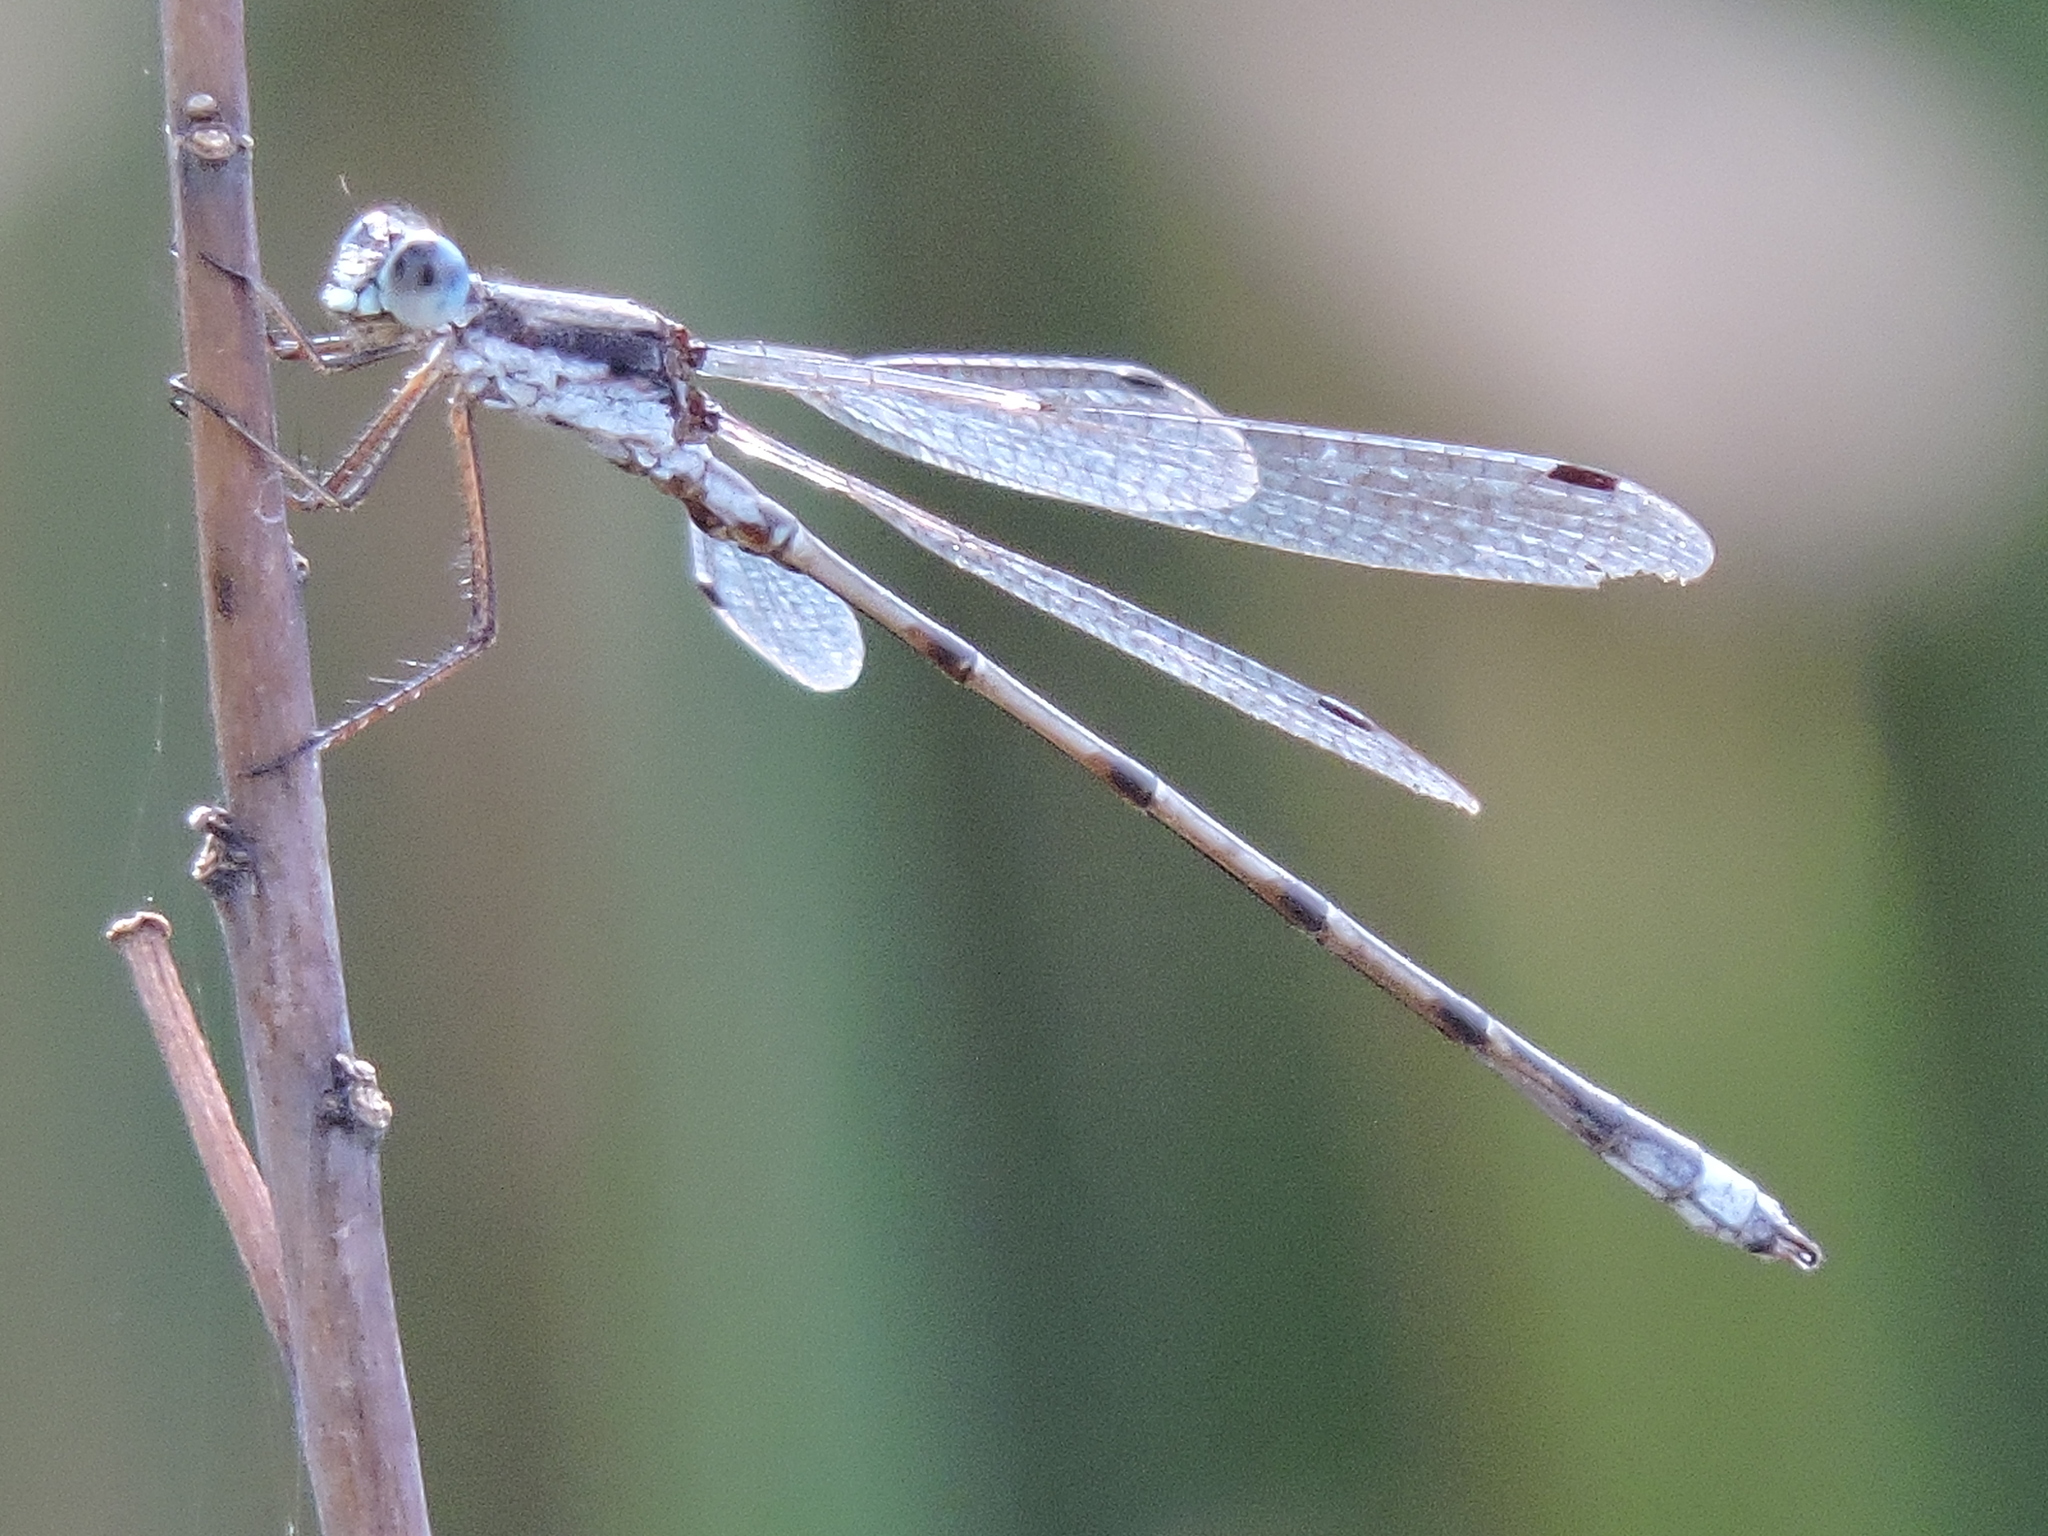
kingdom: Animalia
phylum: Arthropoda
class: Insecta
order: Odonata
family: Lestidae
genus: Lestes
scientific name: Lestes australis
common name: Southern spreadwing
